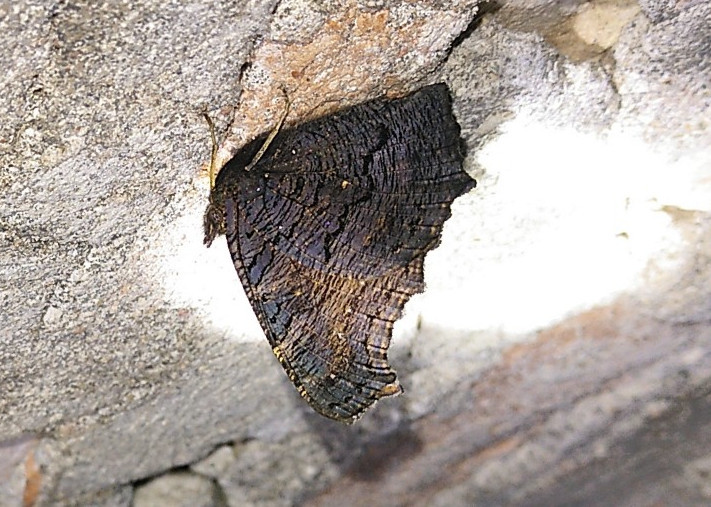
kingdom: Animalia
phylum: Arthropoda
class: Insecta
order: Lepidoptera
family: Nymphalidae
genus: Aglais
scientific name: Aglais io
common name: Peacock
